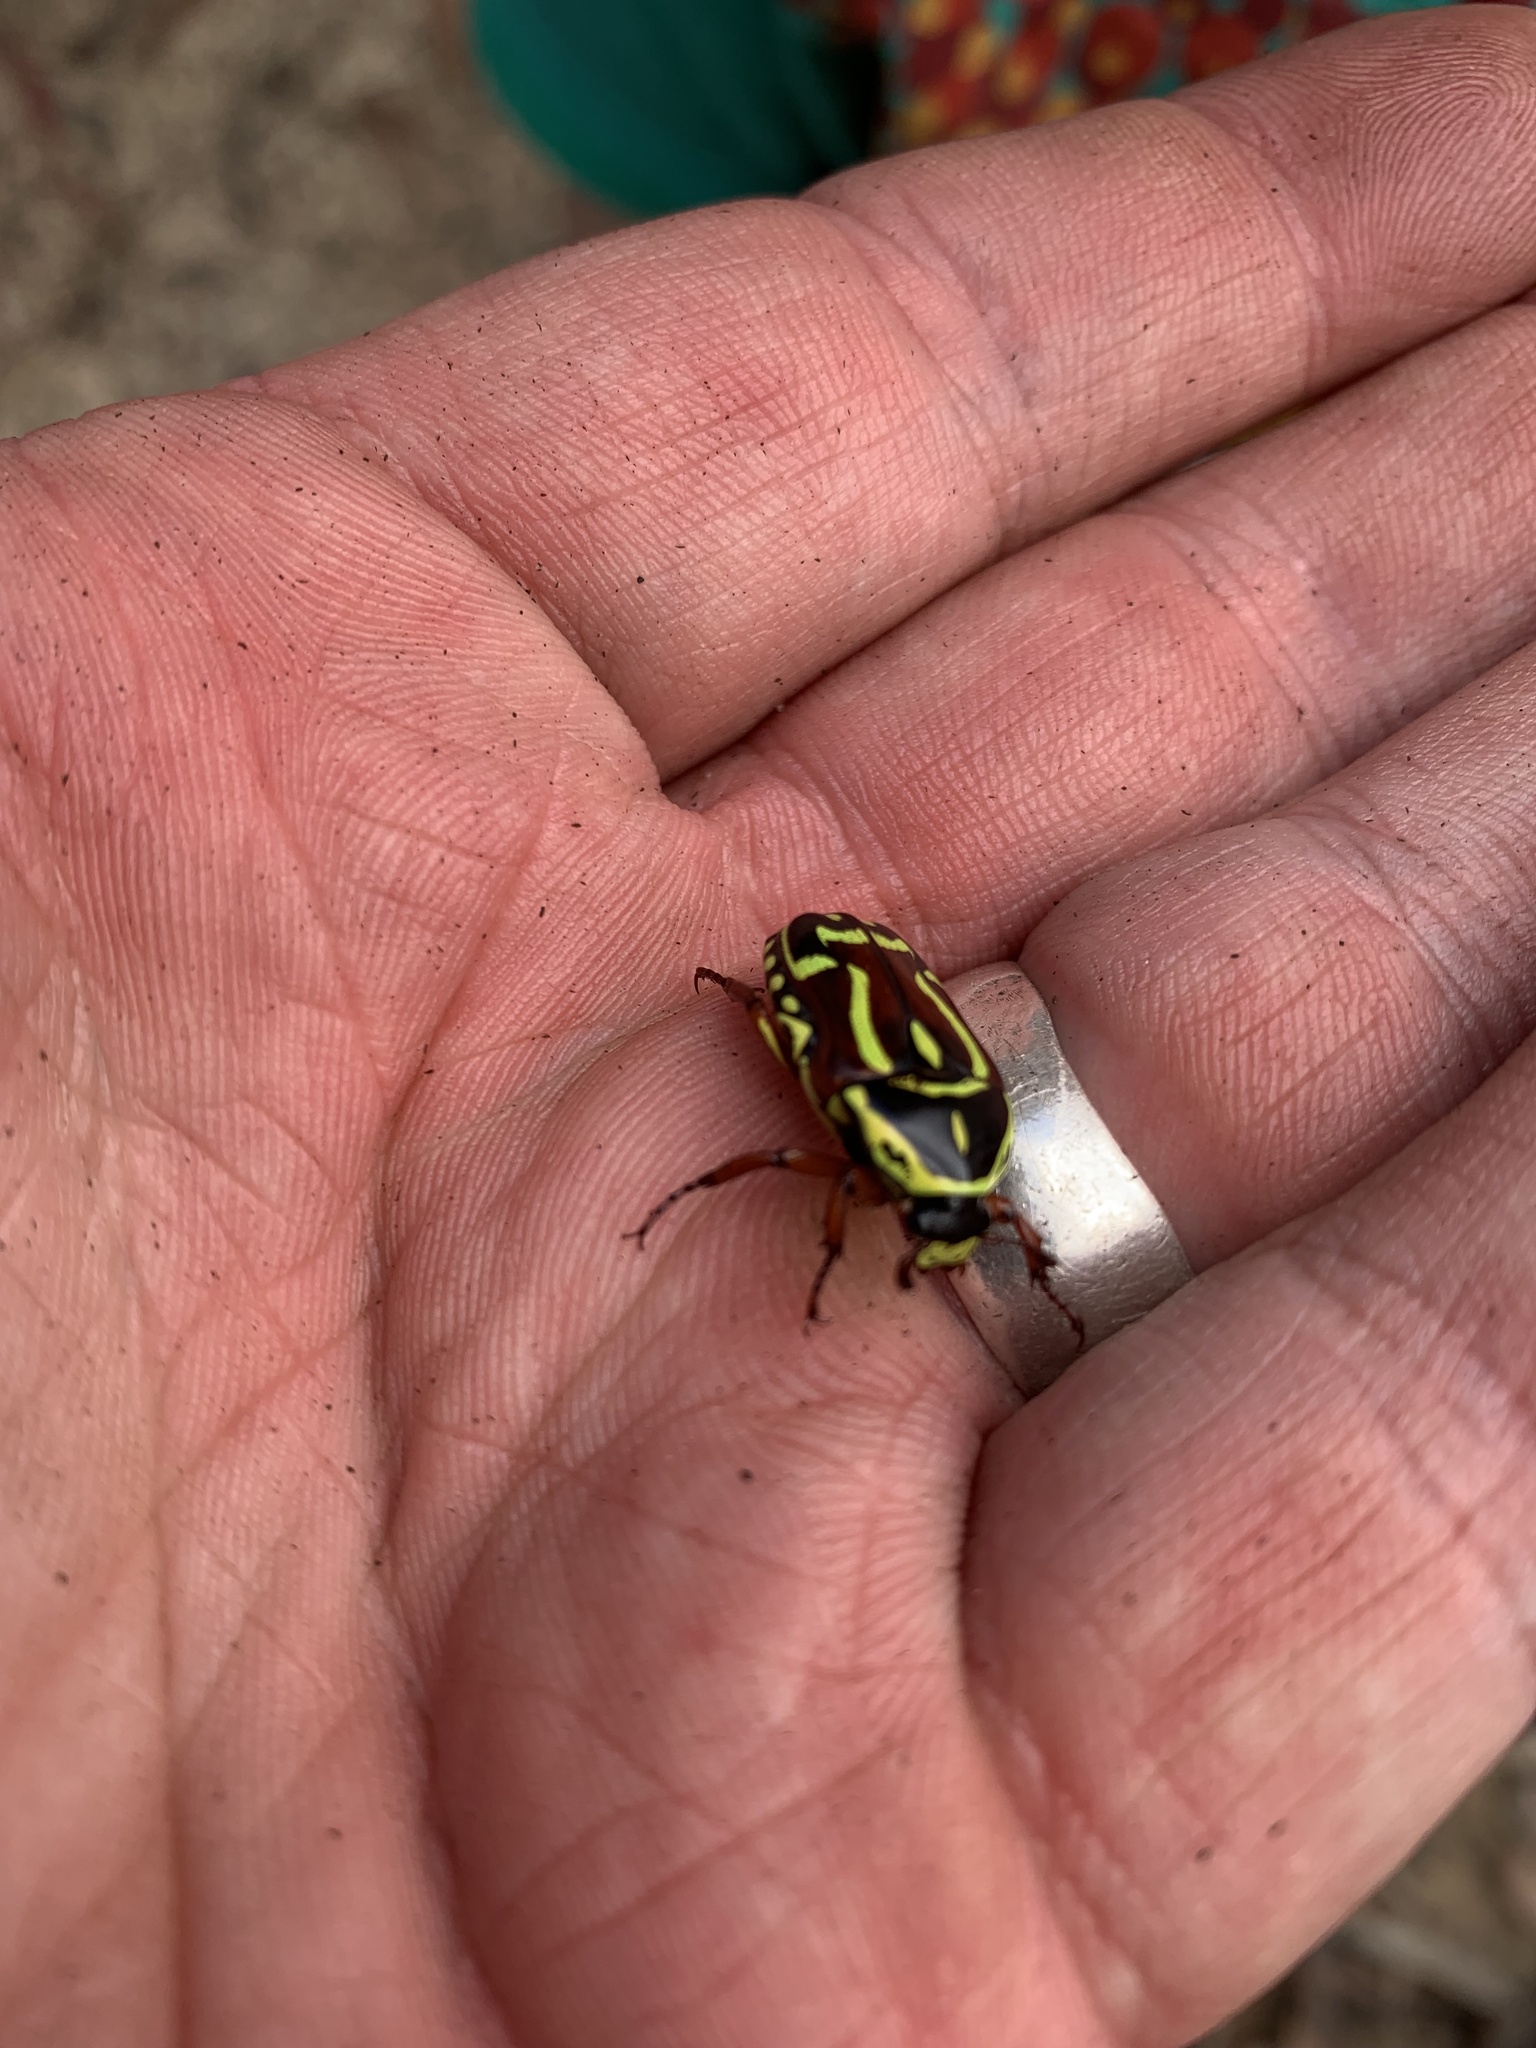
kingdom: Animalia
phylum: Arthropoda
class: Insecta
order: Coleoptera
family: Scarabaeidae
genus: Eupoecila
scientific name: Eupoecila australasiae
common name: Fiddler beetle
